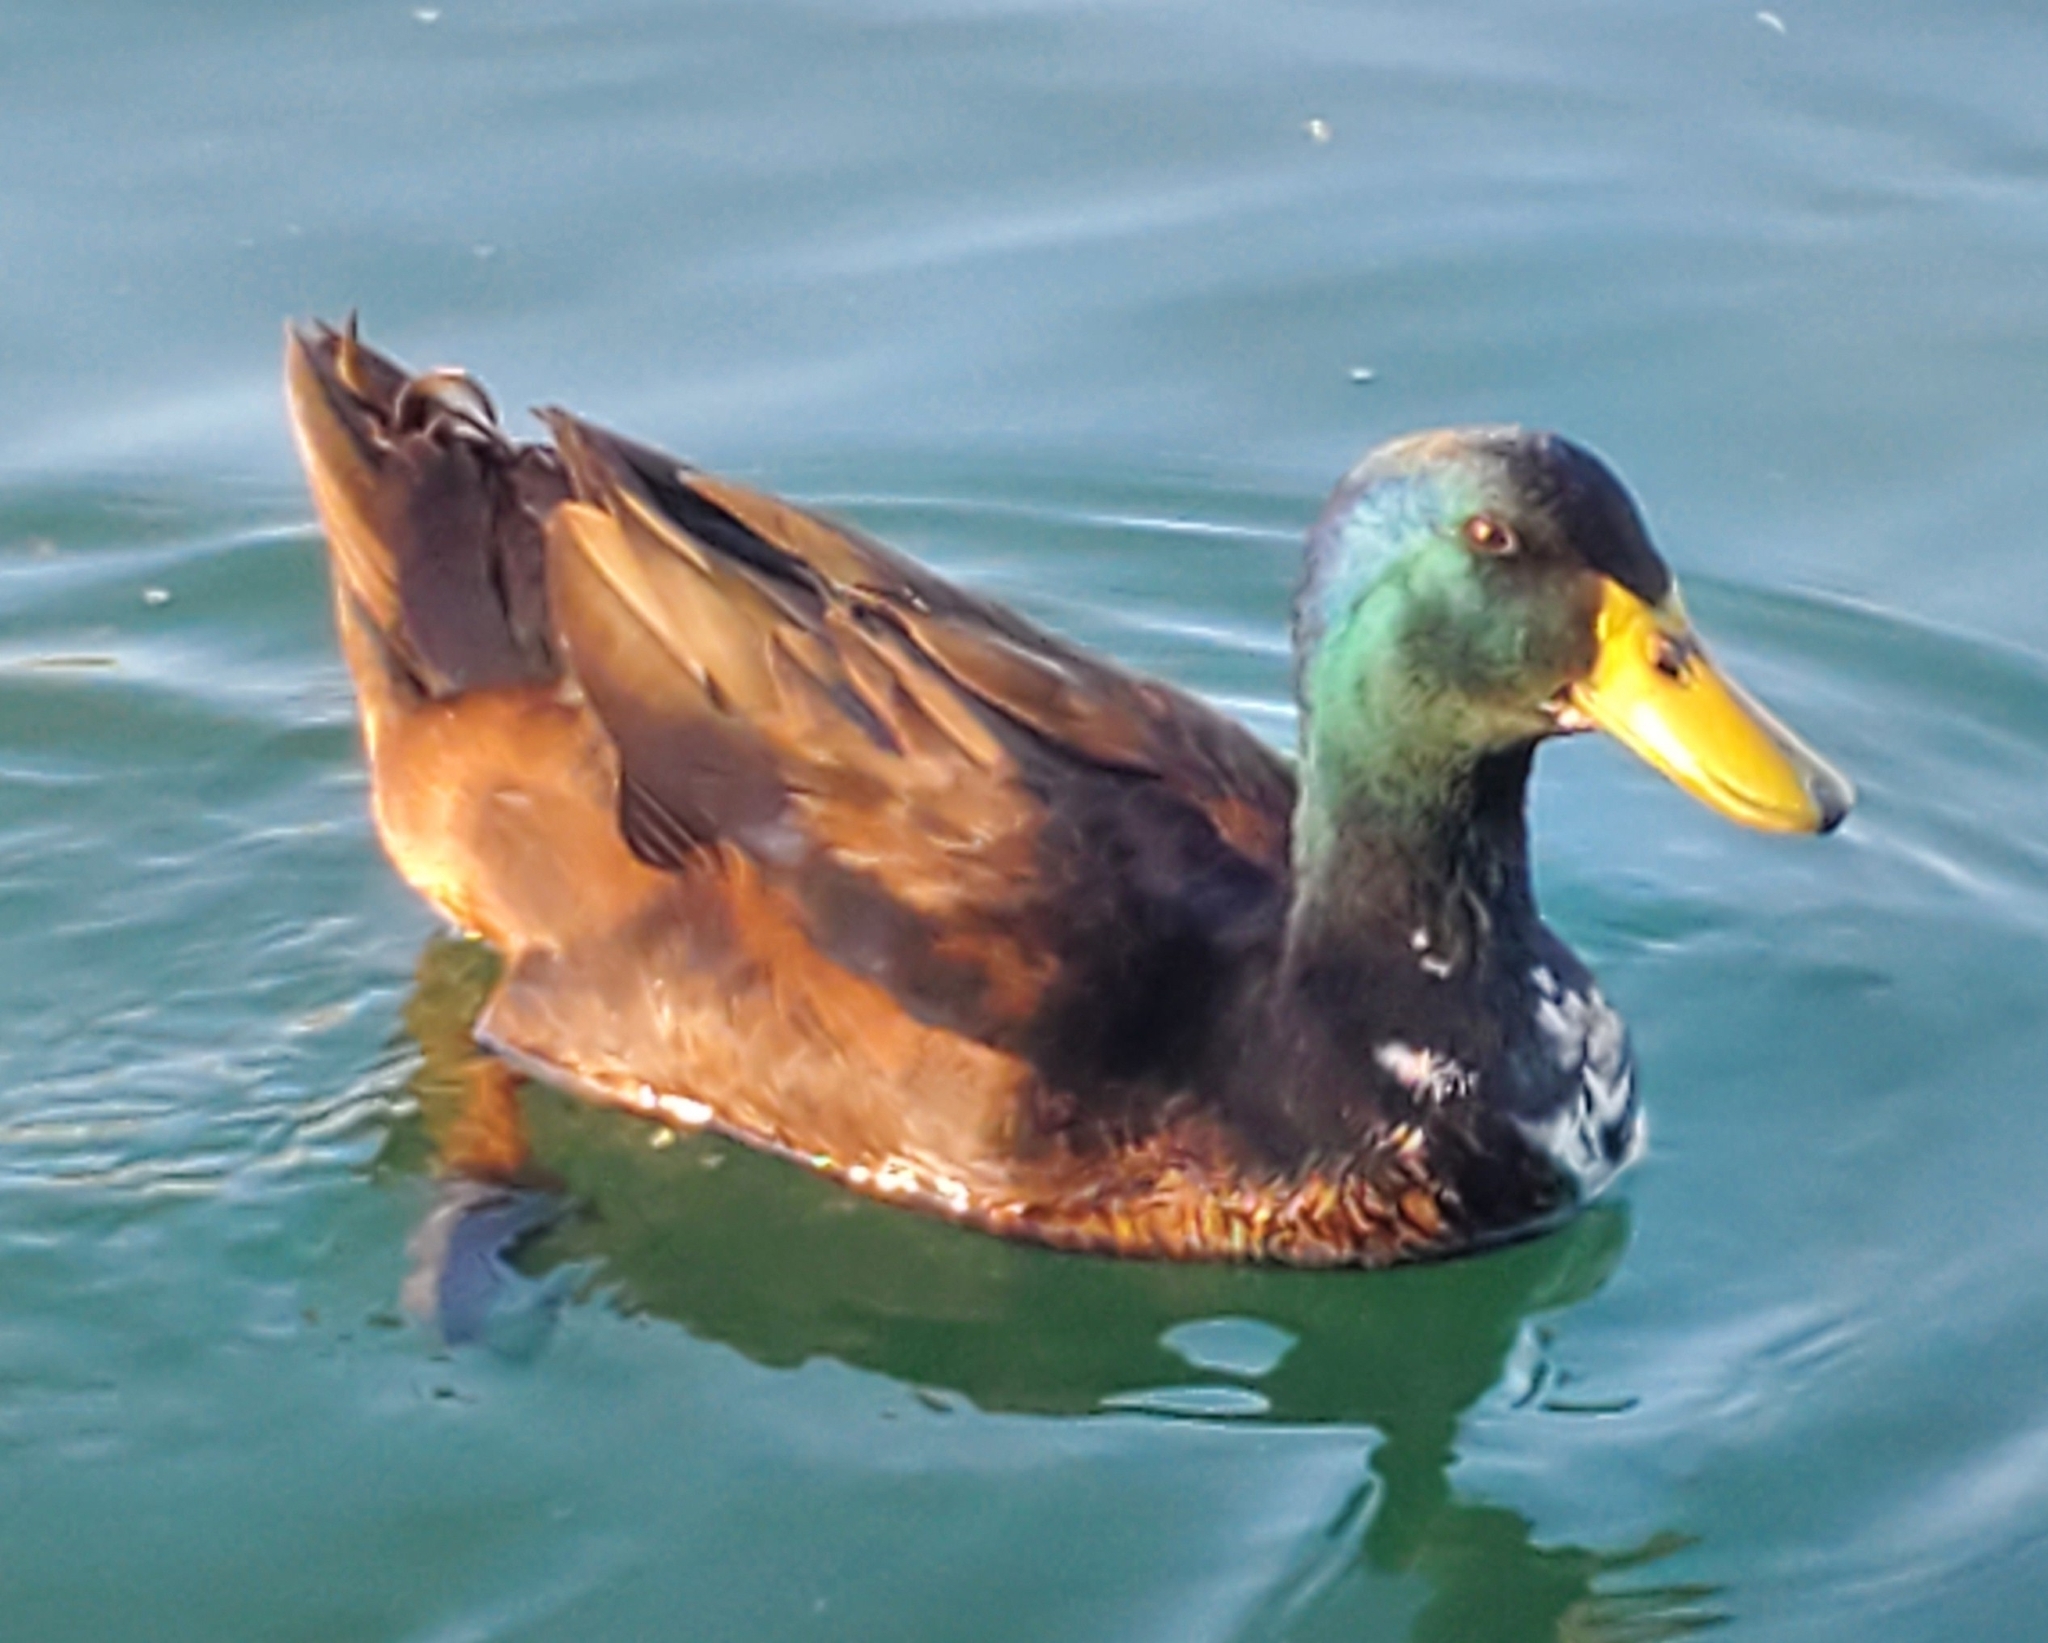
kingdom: Animalia
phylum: Chordata
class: Aves
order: Anseriformes
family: Anatidae
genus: Anas
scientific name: Anas platyrhynchos
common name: Mallard
